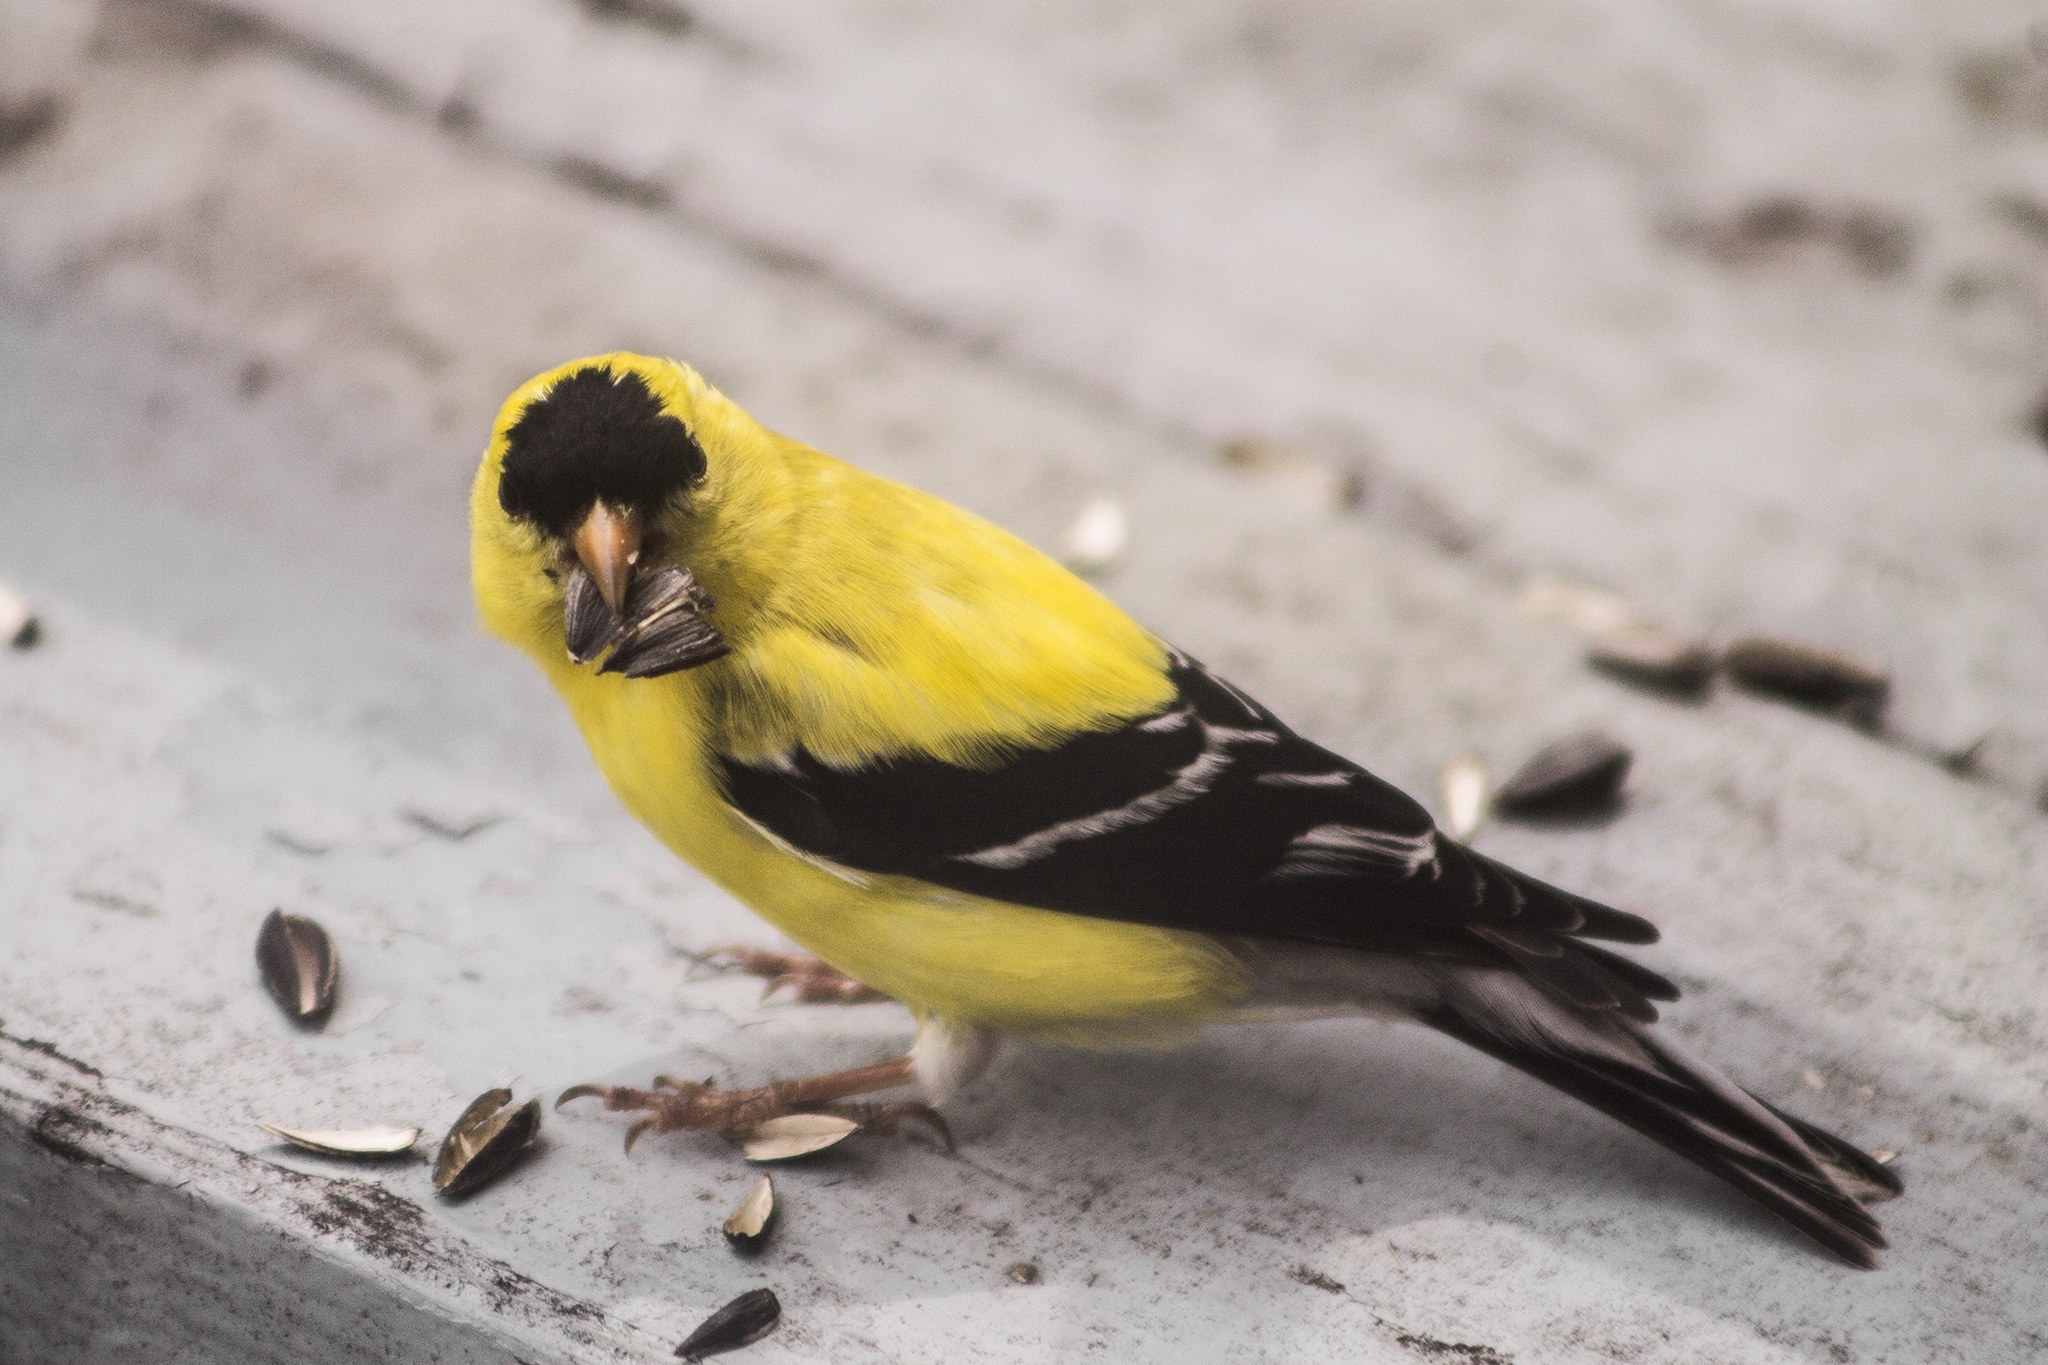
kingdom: Animalia
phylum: Chordata
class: Aves
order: Passeriformes
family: Fringillidae
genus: Spinus
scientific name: Spinus tristis
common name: American goldfinch
